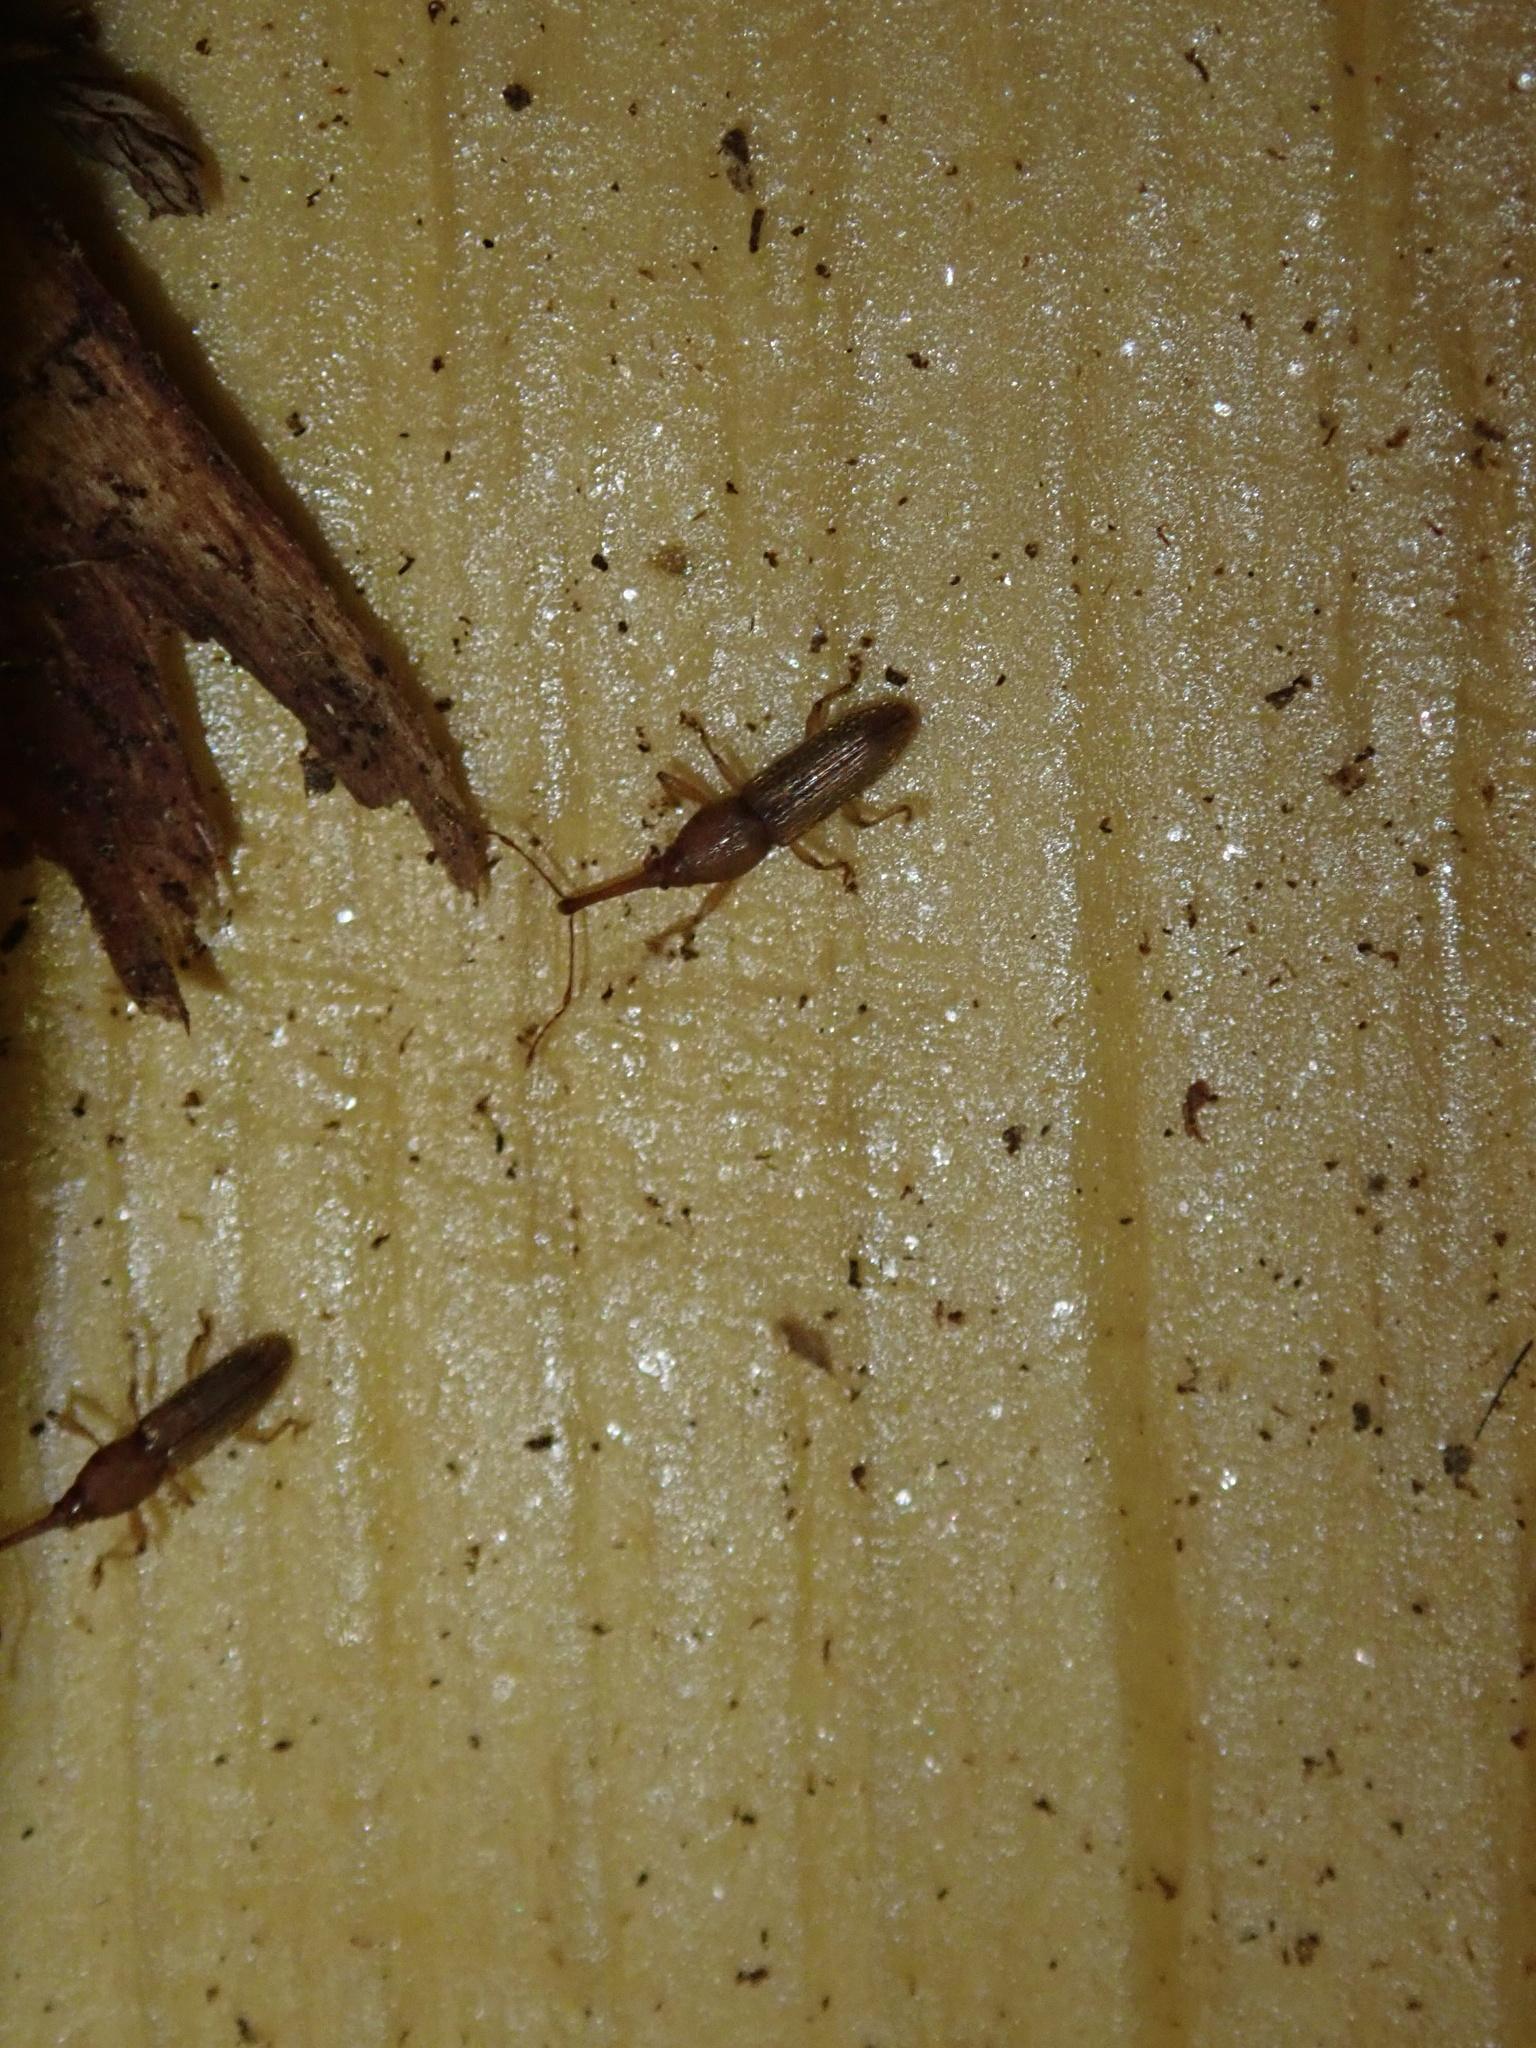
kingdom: Animalia
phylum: Arthropoda
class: Insecta
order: Coleoptera
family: Curculionidae
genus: Arecocryptus
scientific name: Arecocryptus bellus
